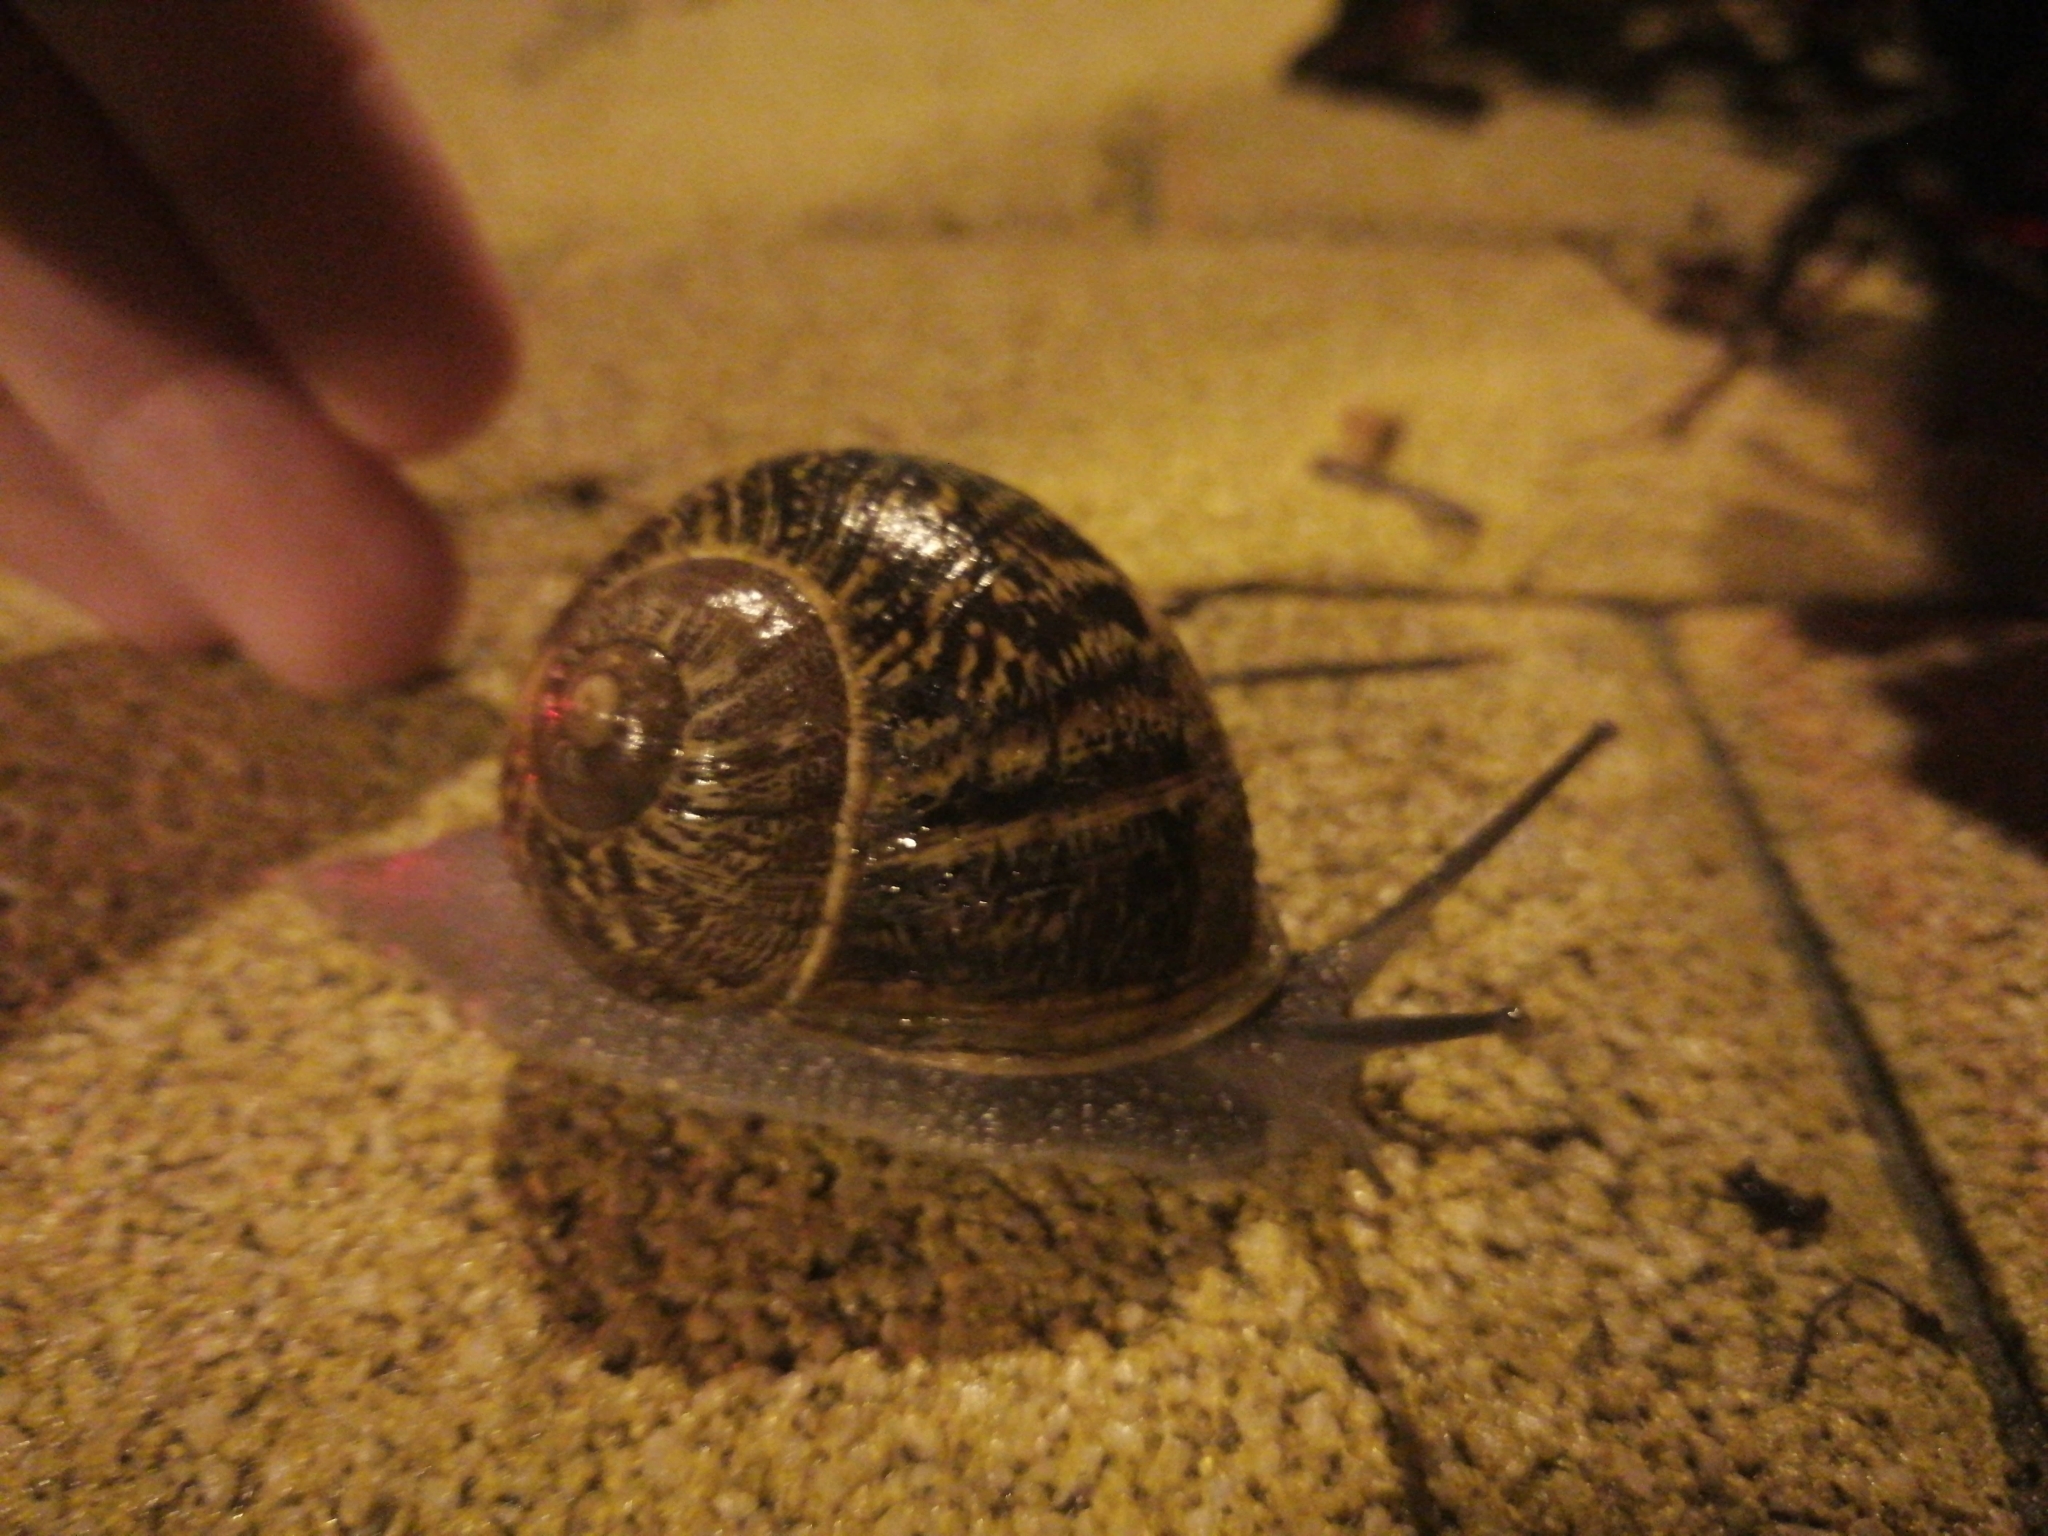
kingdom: Animalia
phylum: Mollusca
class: Gastropoda
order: Stylommatophora
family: Helicidae
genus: Cornu
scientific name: Cornu aspersum
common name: Brown garden snail
